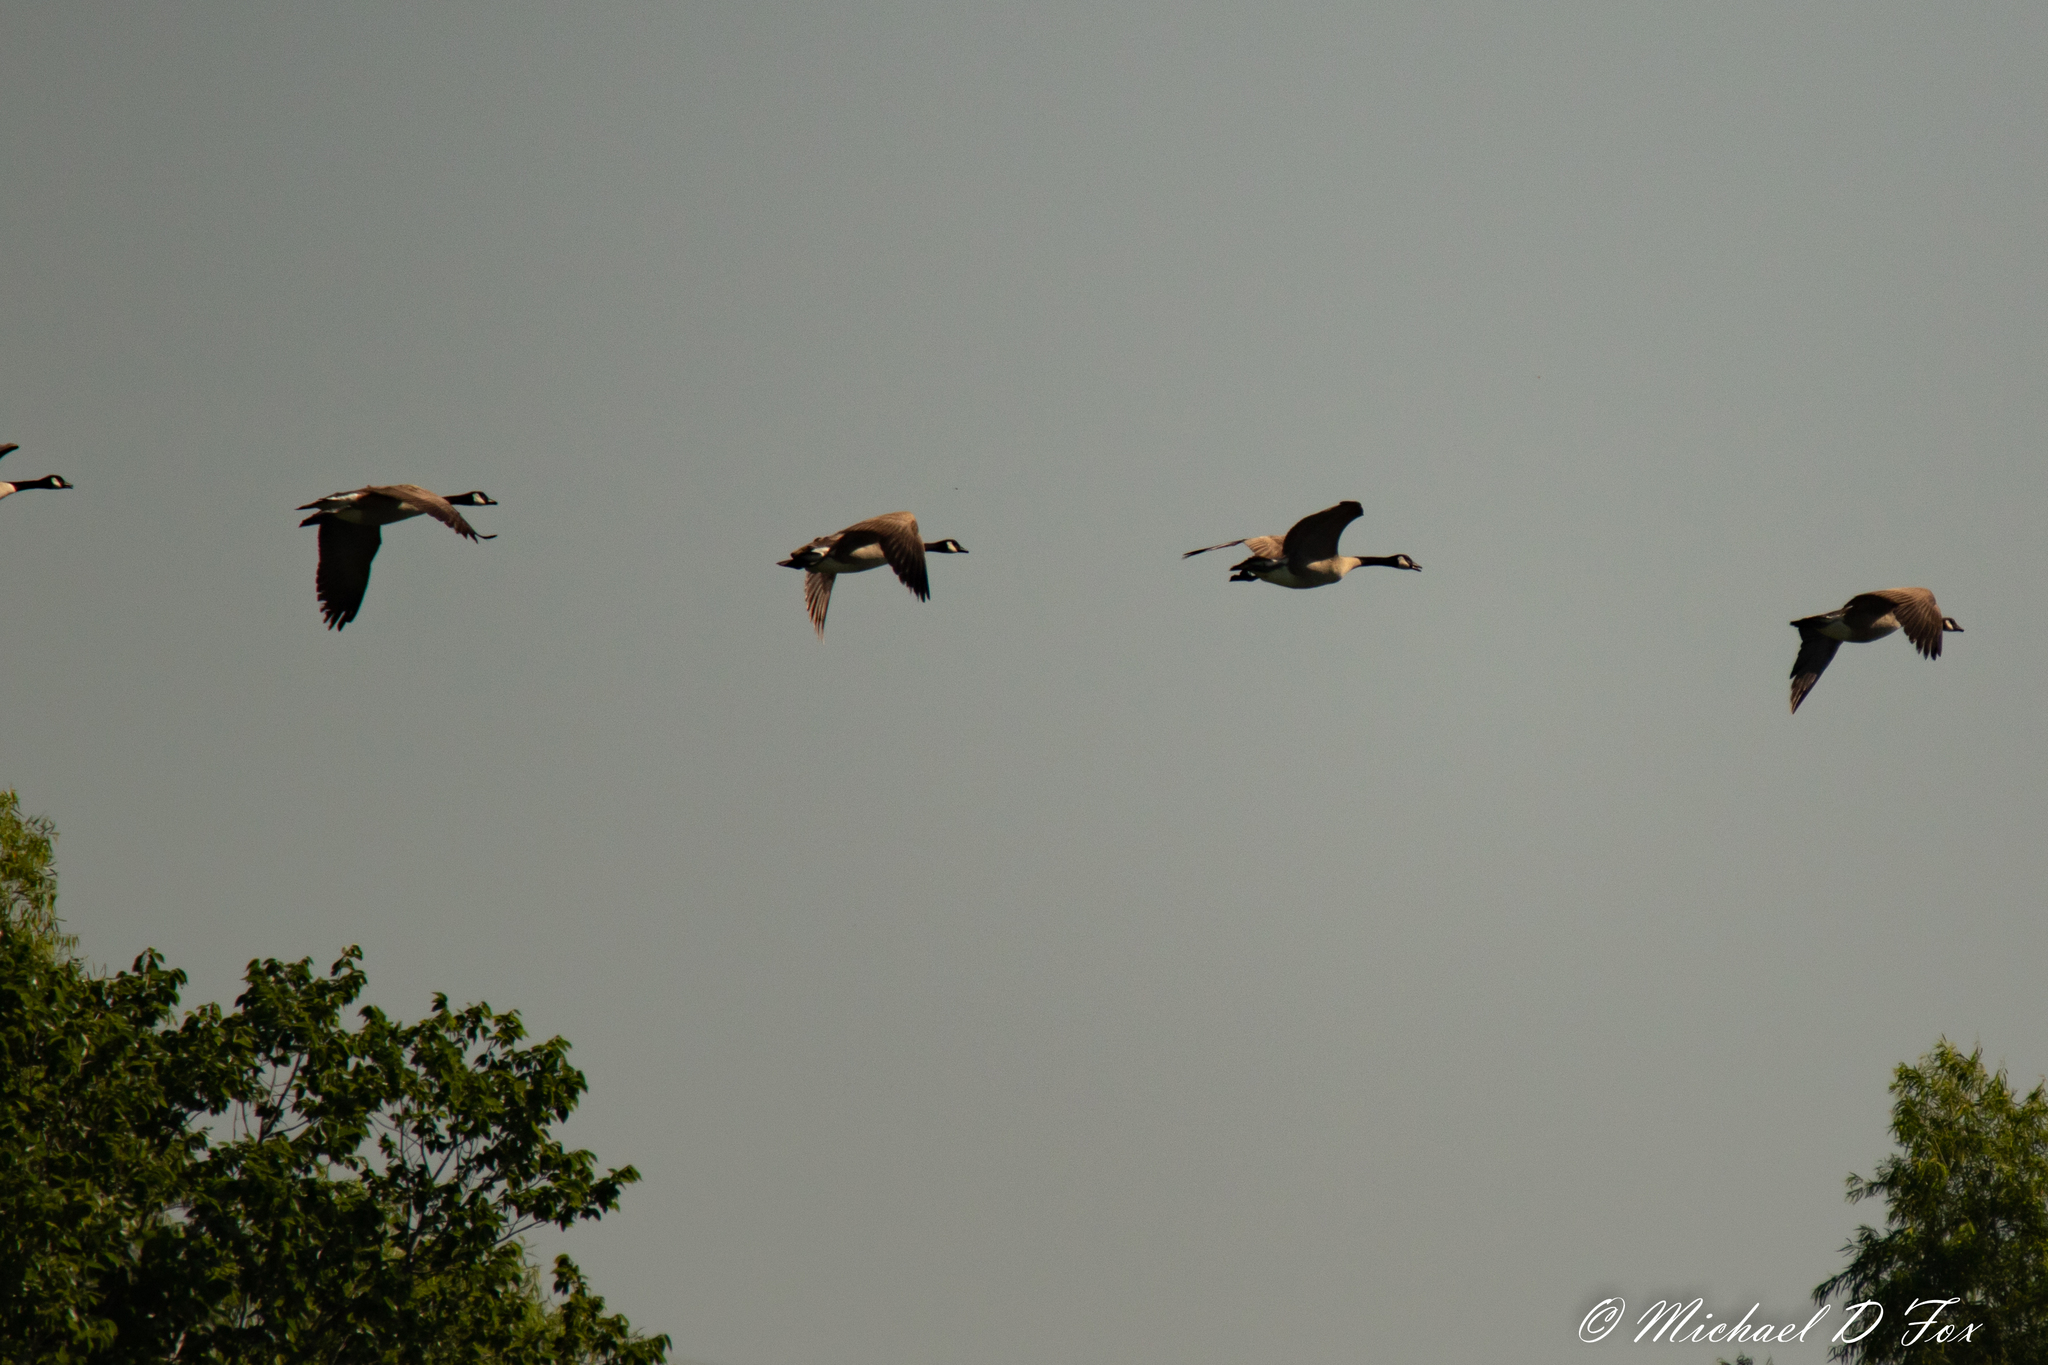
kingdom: Animalia
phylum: Chordata
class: Aves
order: Anseriformes
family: Anatidae
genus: Branta
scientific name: Branta canadensis
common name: Canada goose
